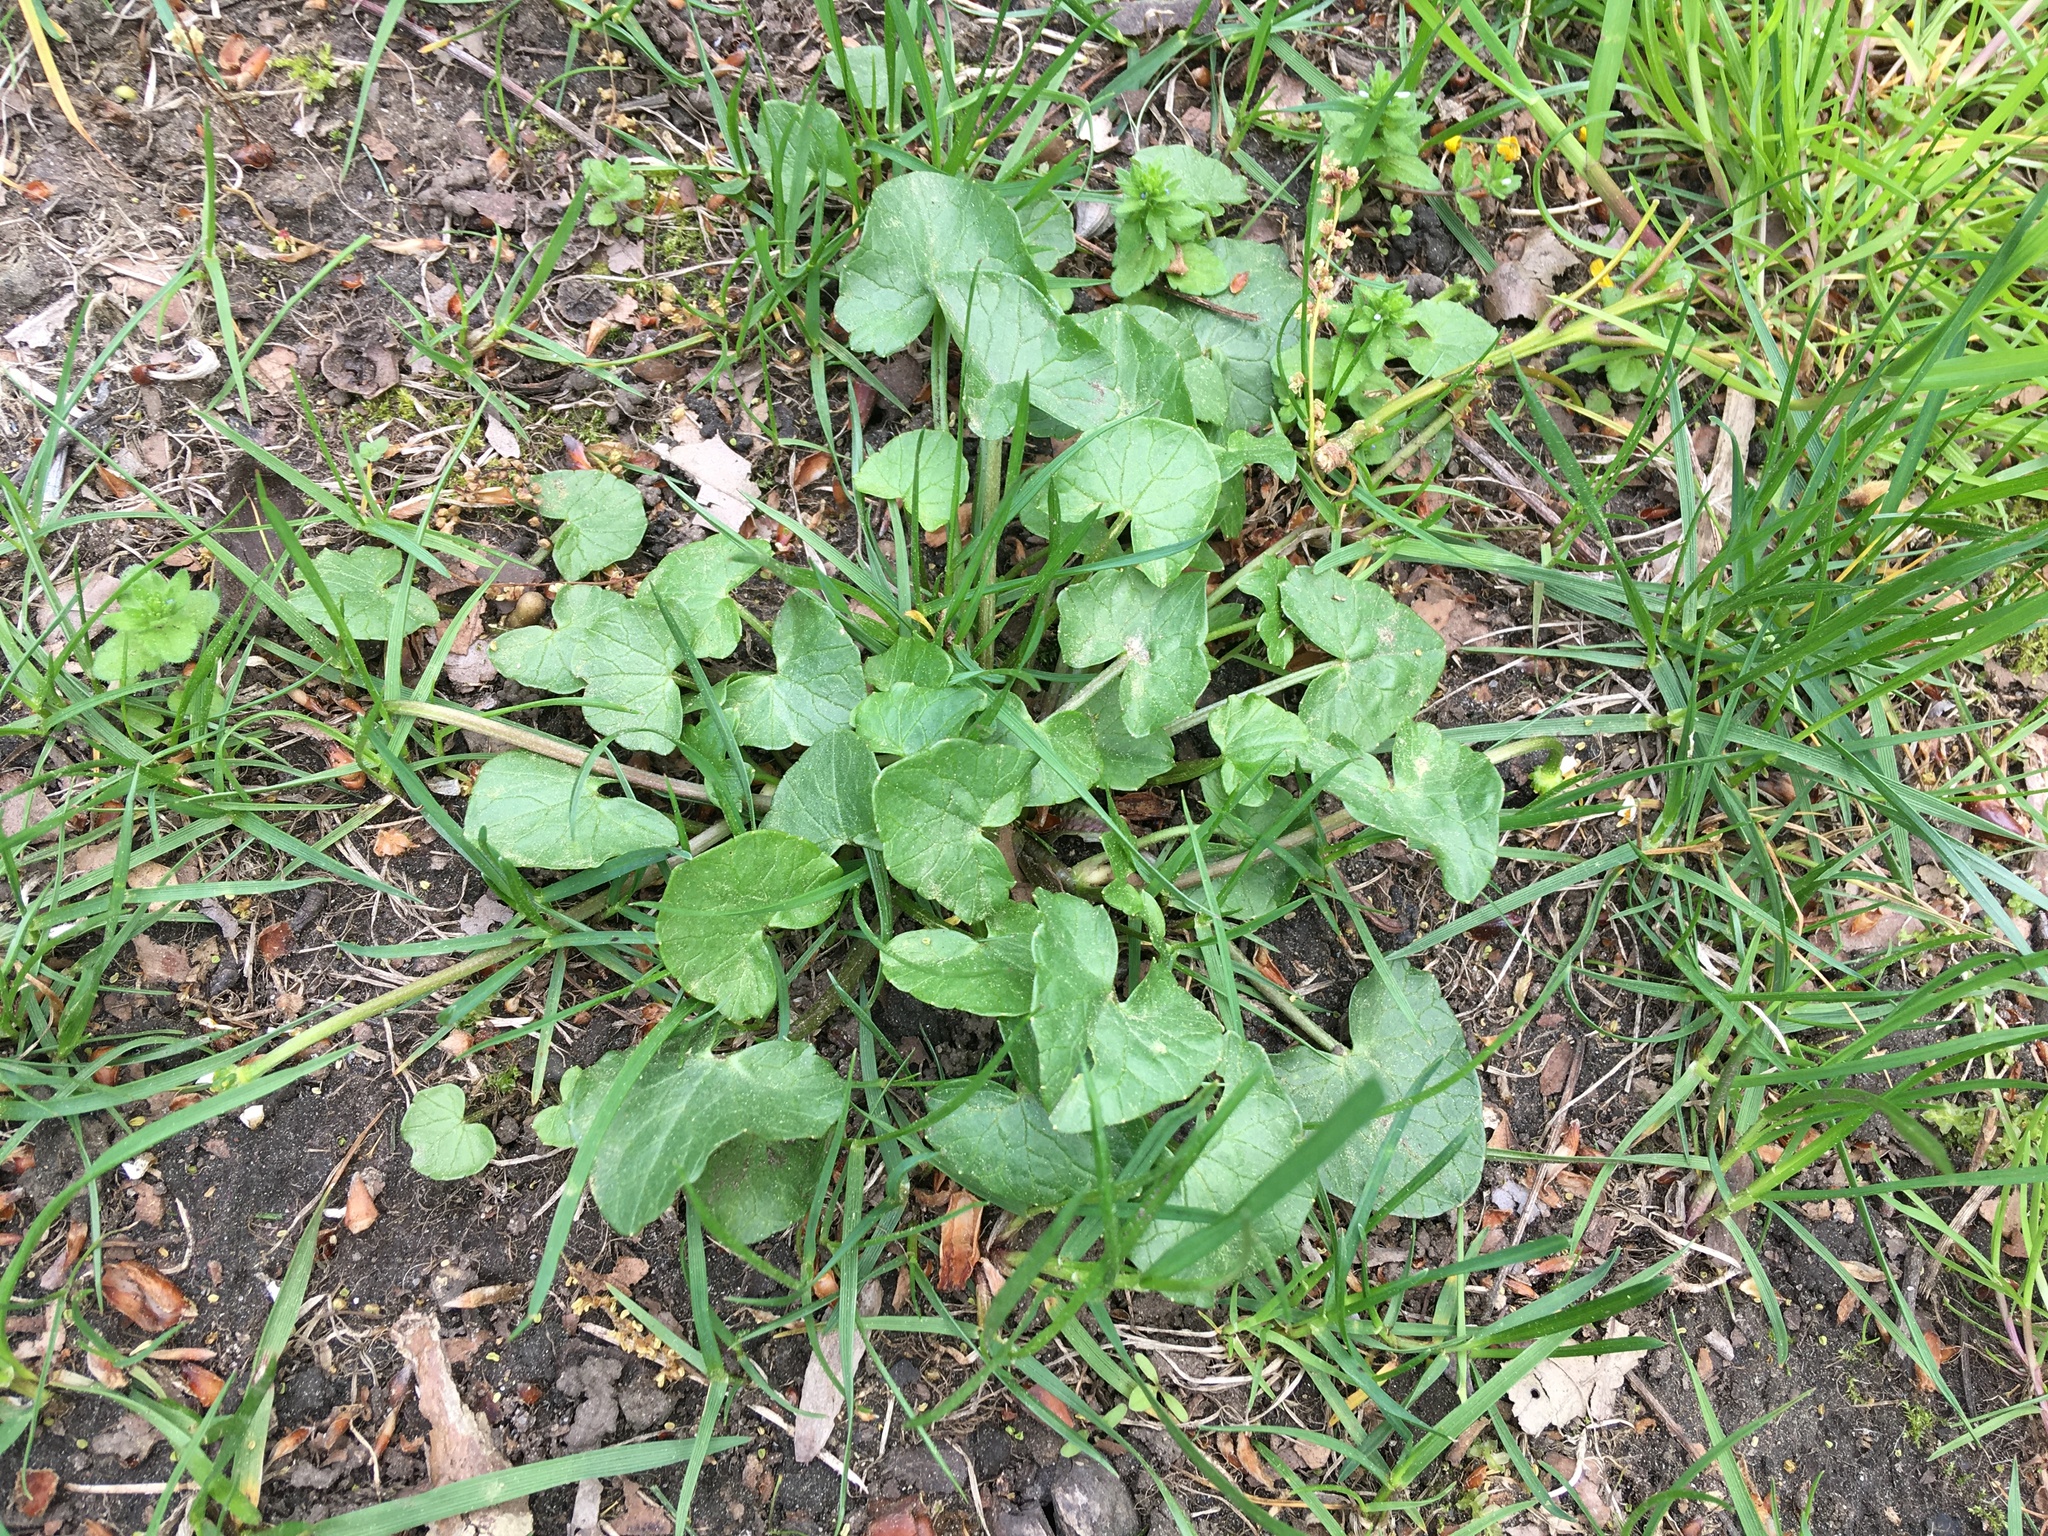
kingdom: Plantae
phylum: Tracheophyta
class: Magnoliopsida
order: Ranunculales
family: Ranunculaceae
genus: Ficaria
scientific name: Ficaria verna
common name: Lesser celandine
